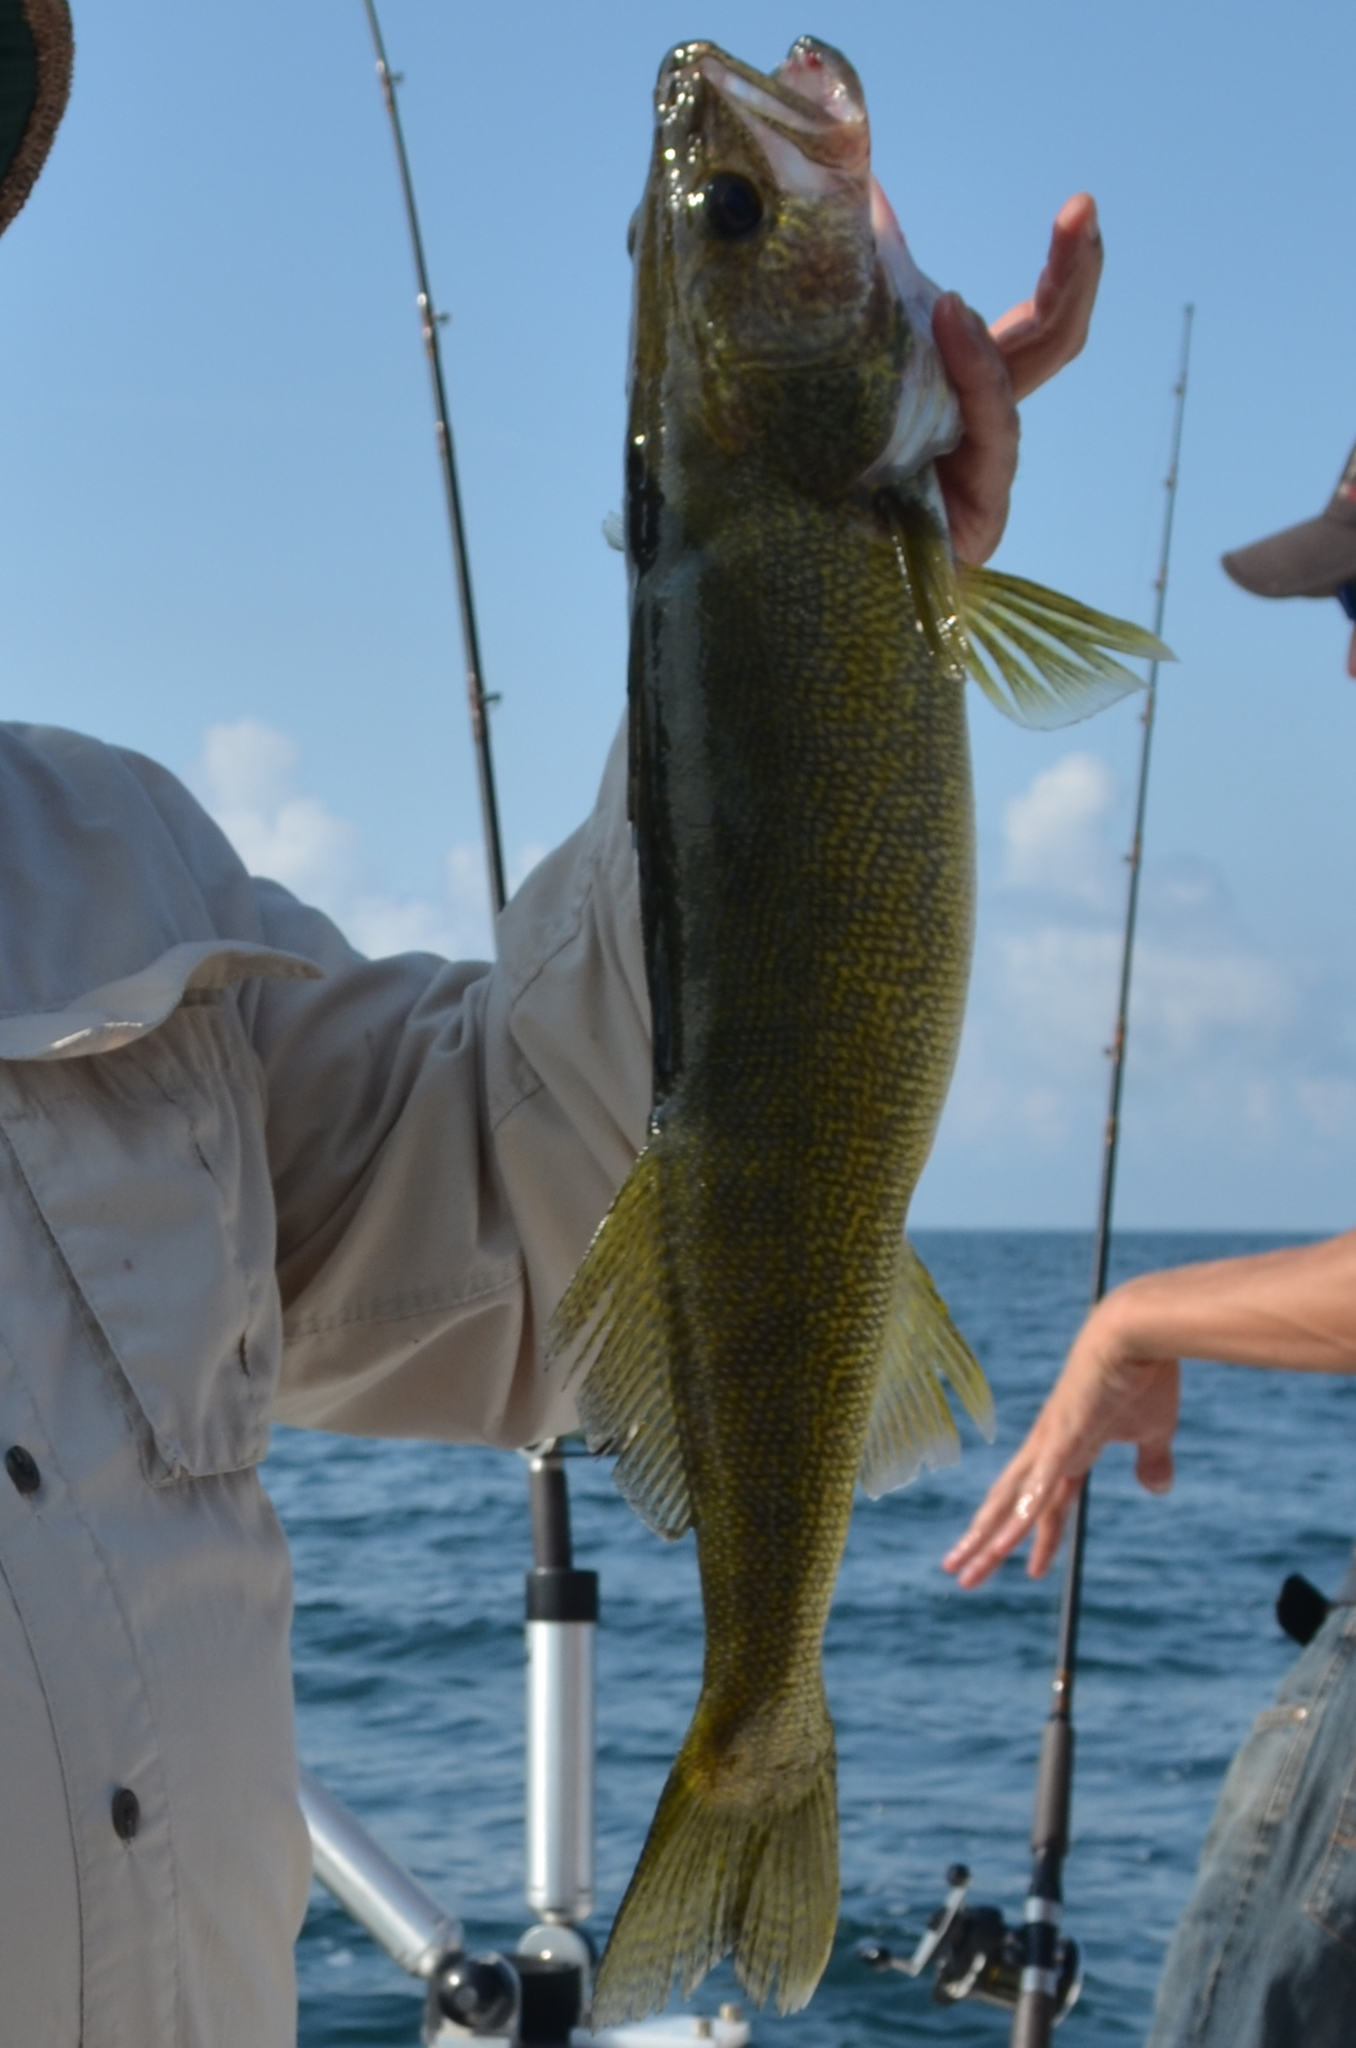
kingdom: Animalia
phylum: Chordata
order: Perciformes
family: Percidae
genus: Sander
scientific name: Sander vitreus
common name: Walleye
